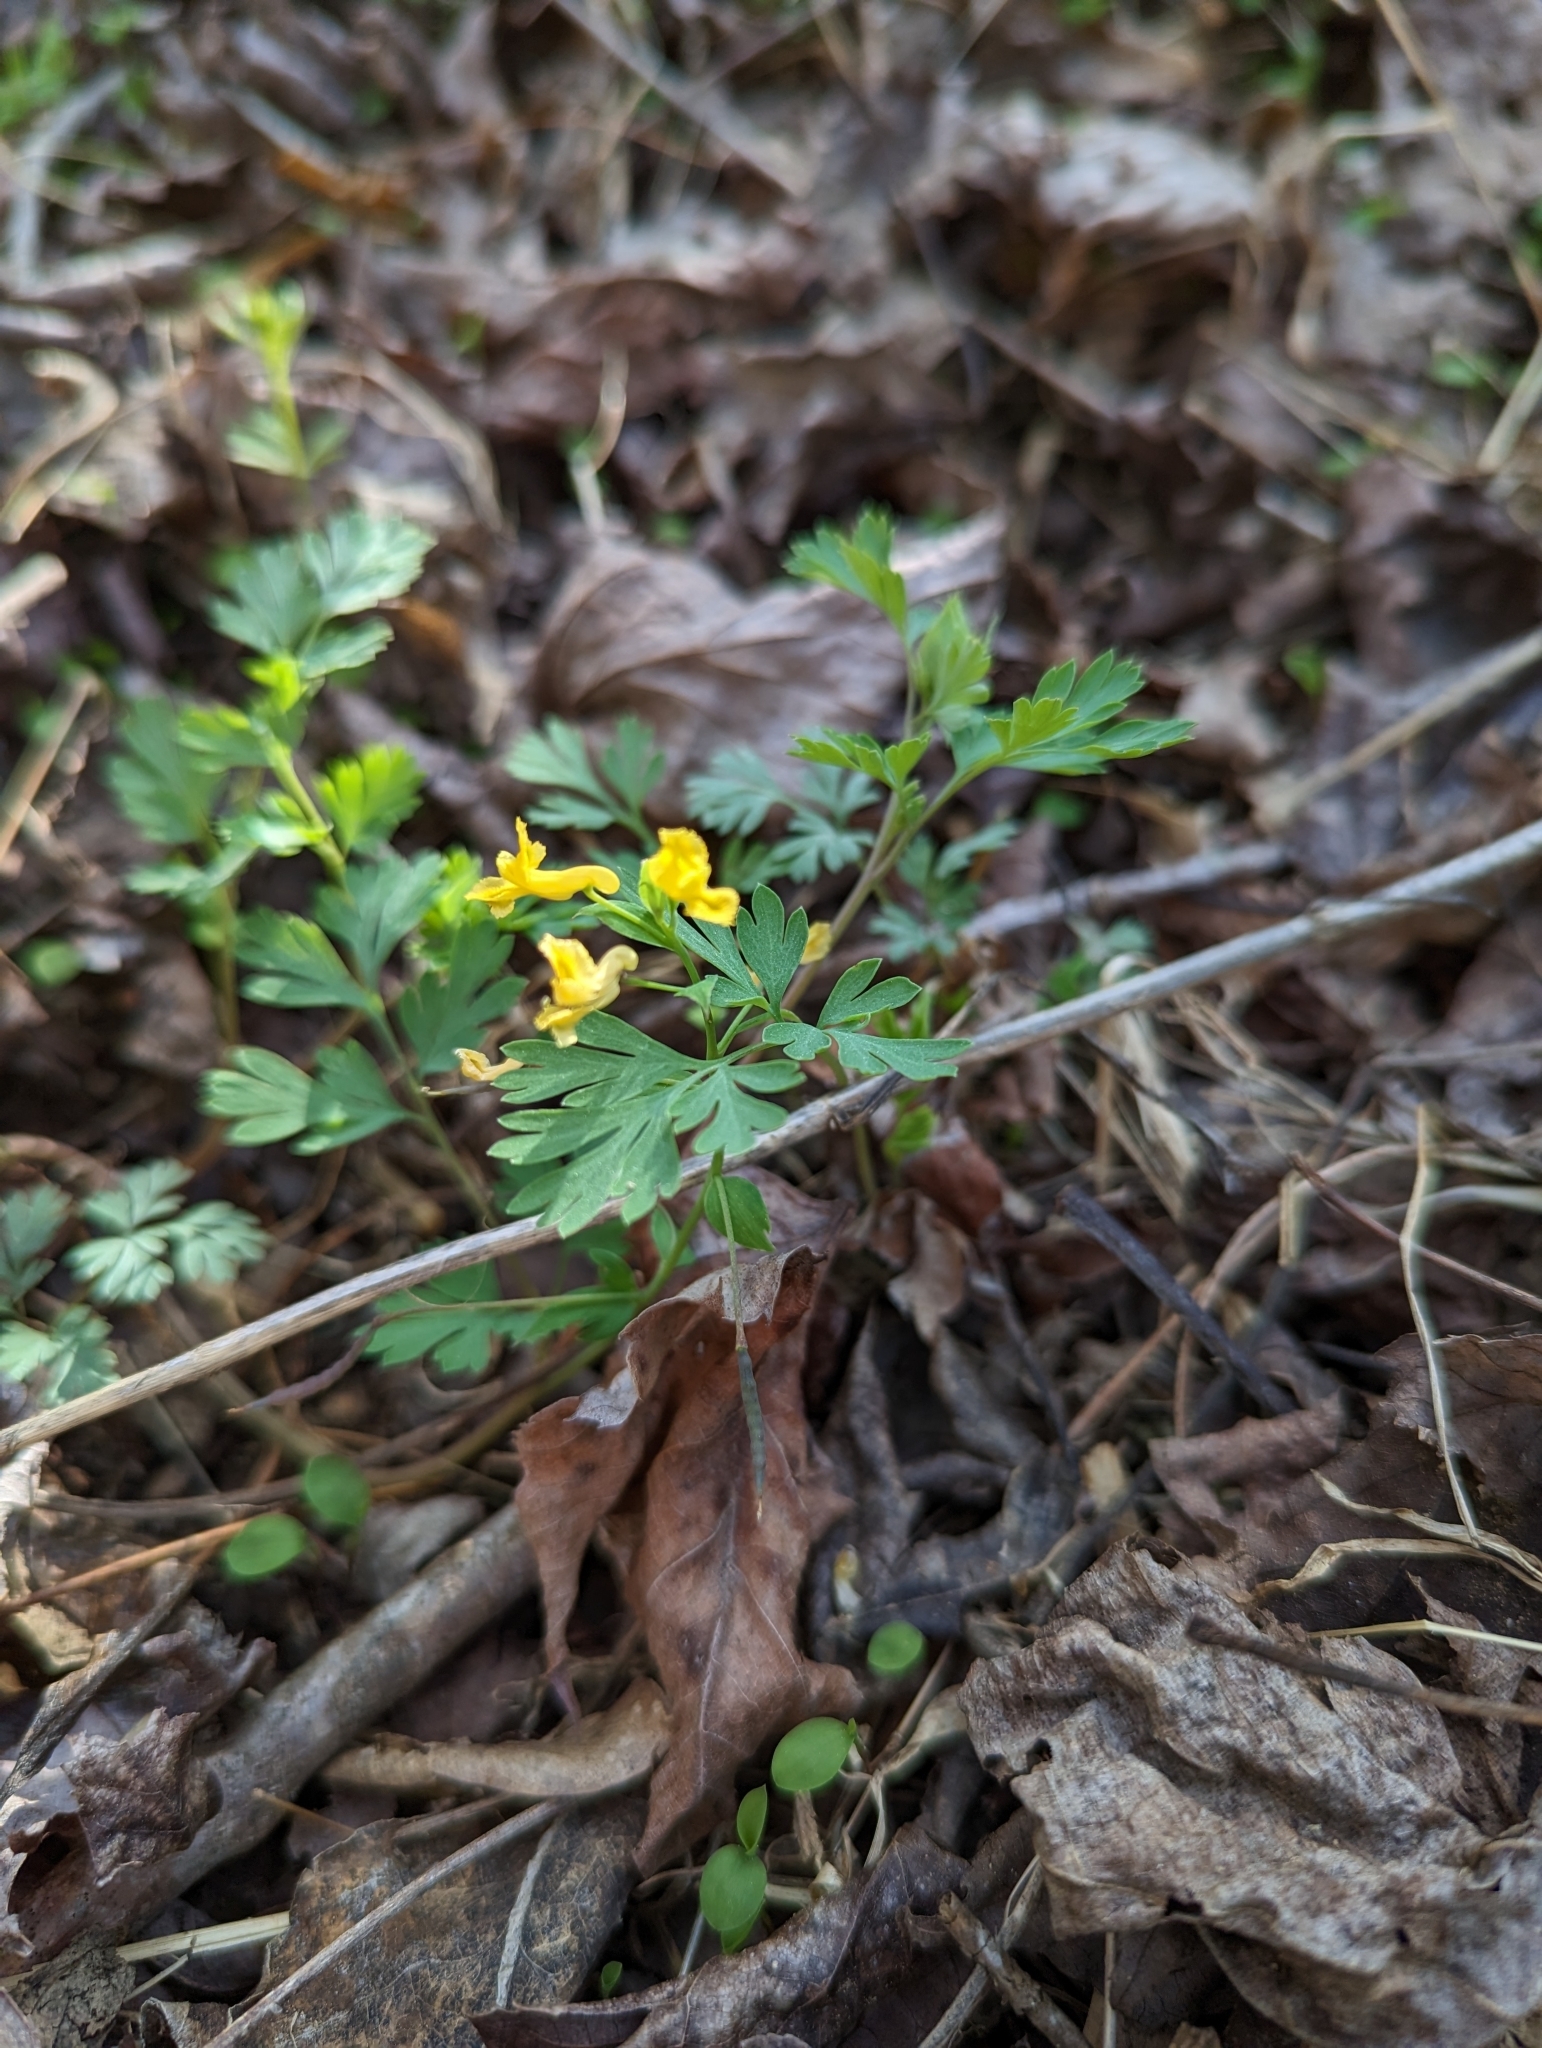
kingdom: Plantae
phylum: Tracheophyta
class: Magnoliopsida
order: Ranunculales
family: Papaveraceae
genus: Corydalis
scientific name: Corydalis flavula
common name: Yellow corydalis
